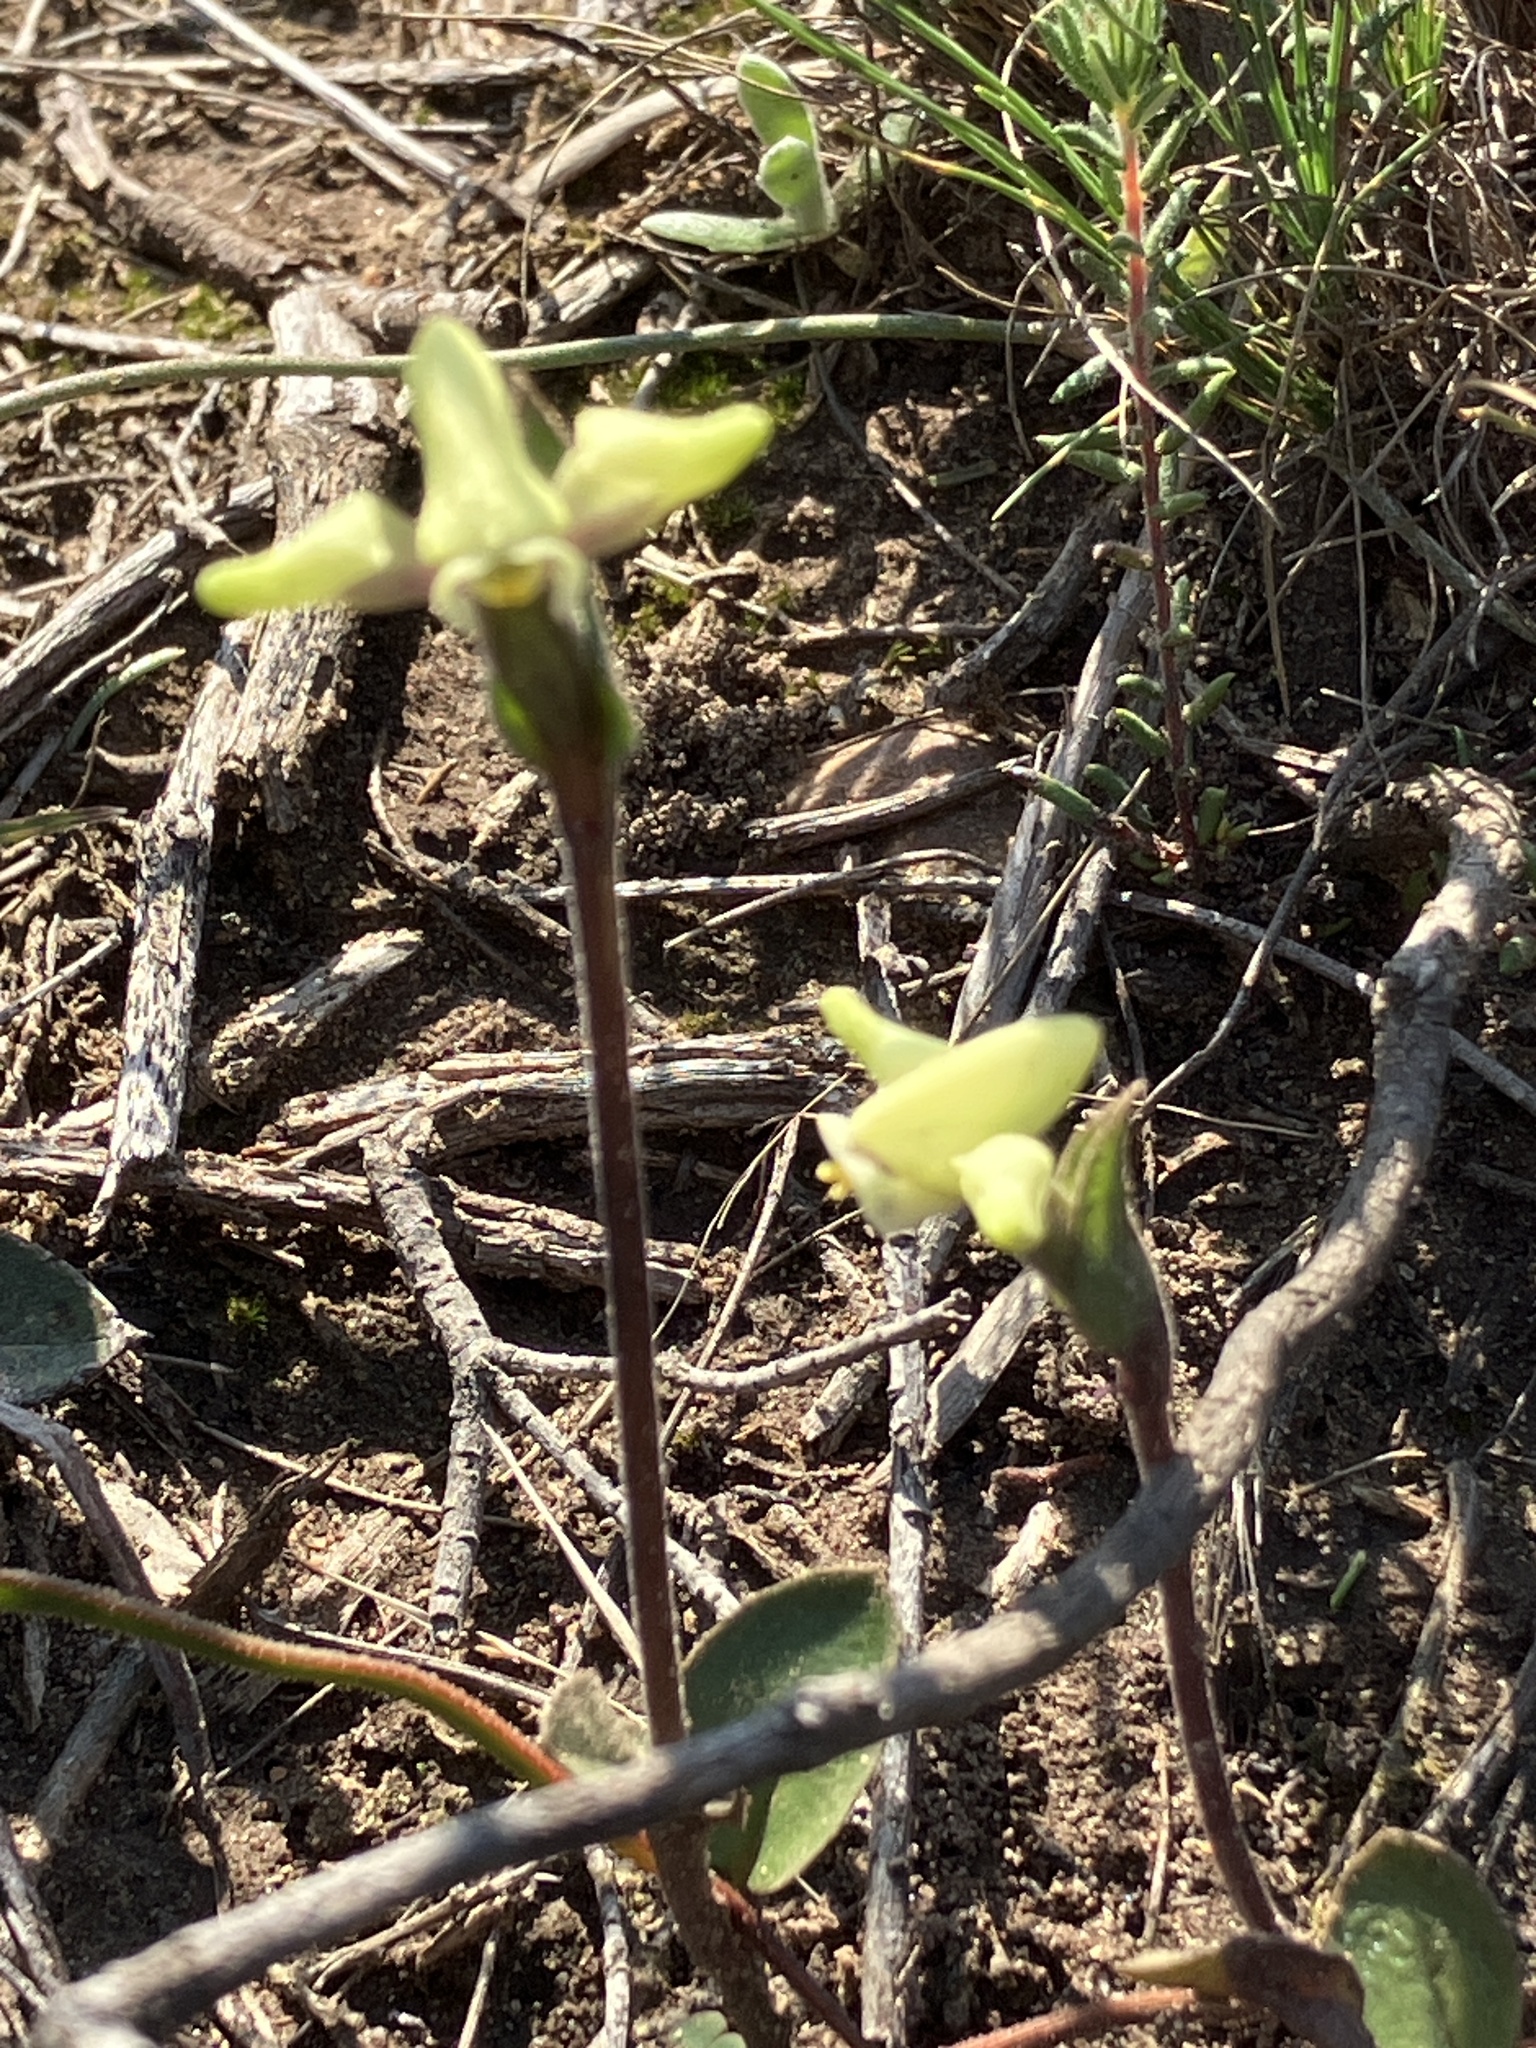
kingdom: Plantae
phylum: Tracheophyta
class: Liliopsida
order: Asparagales
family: Orchidaceae
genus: Disperis
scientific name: Disperis villosa
